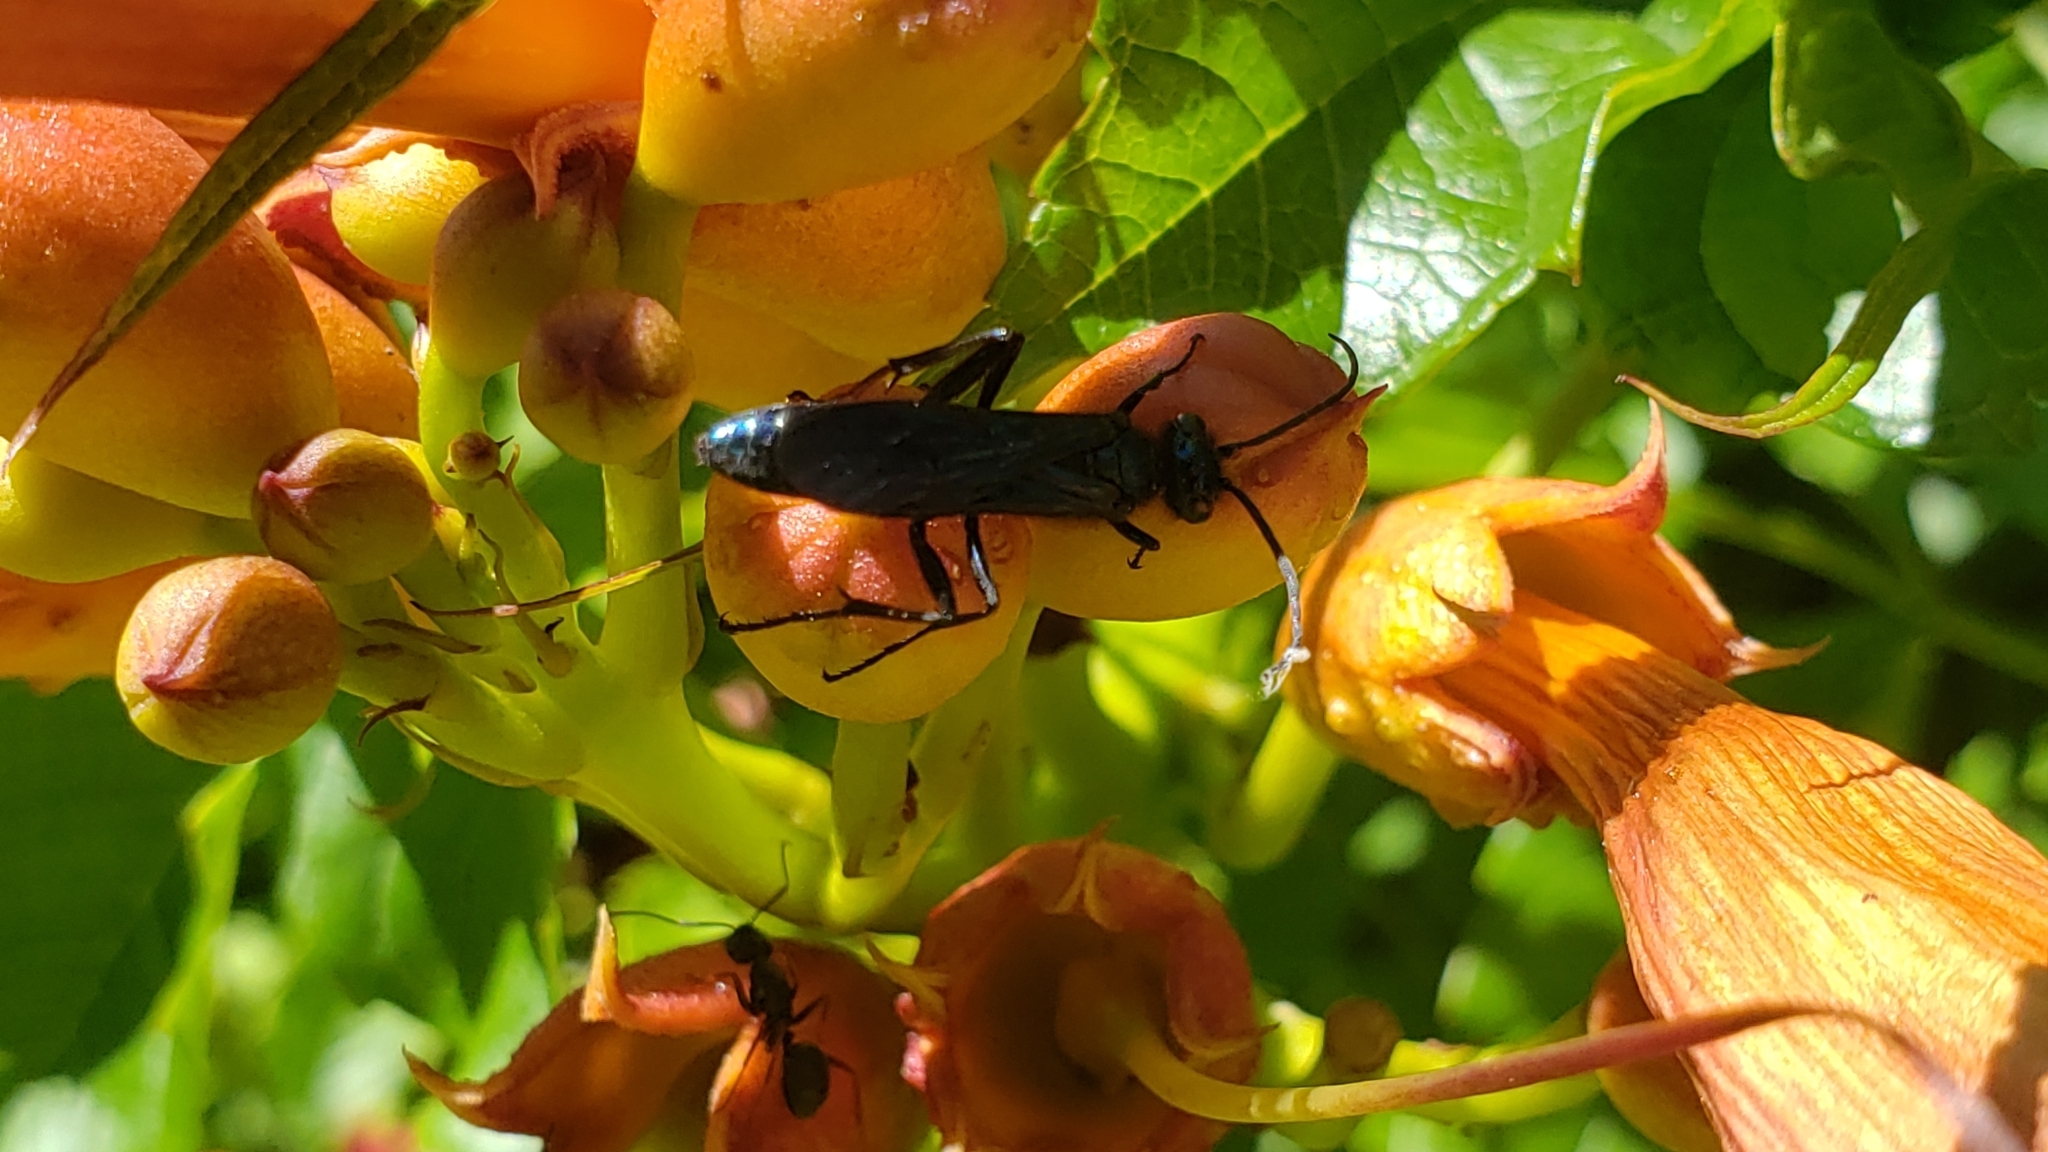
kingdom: Animalia
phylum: Arthropoda
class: Insecta
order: Hymenoptera
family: Sphecidae
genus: Chalybion
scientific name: Chalybion californicum
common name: Mud dauber
